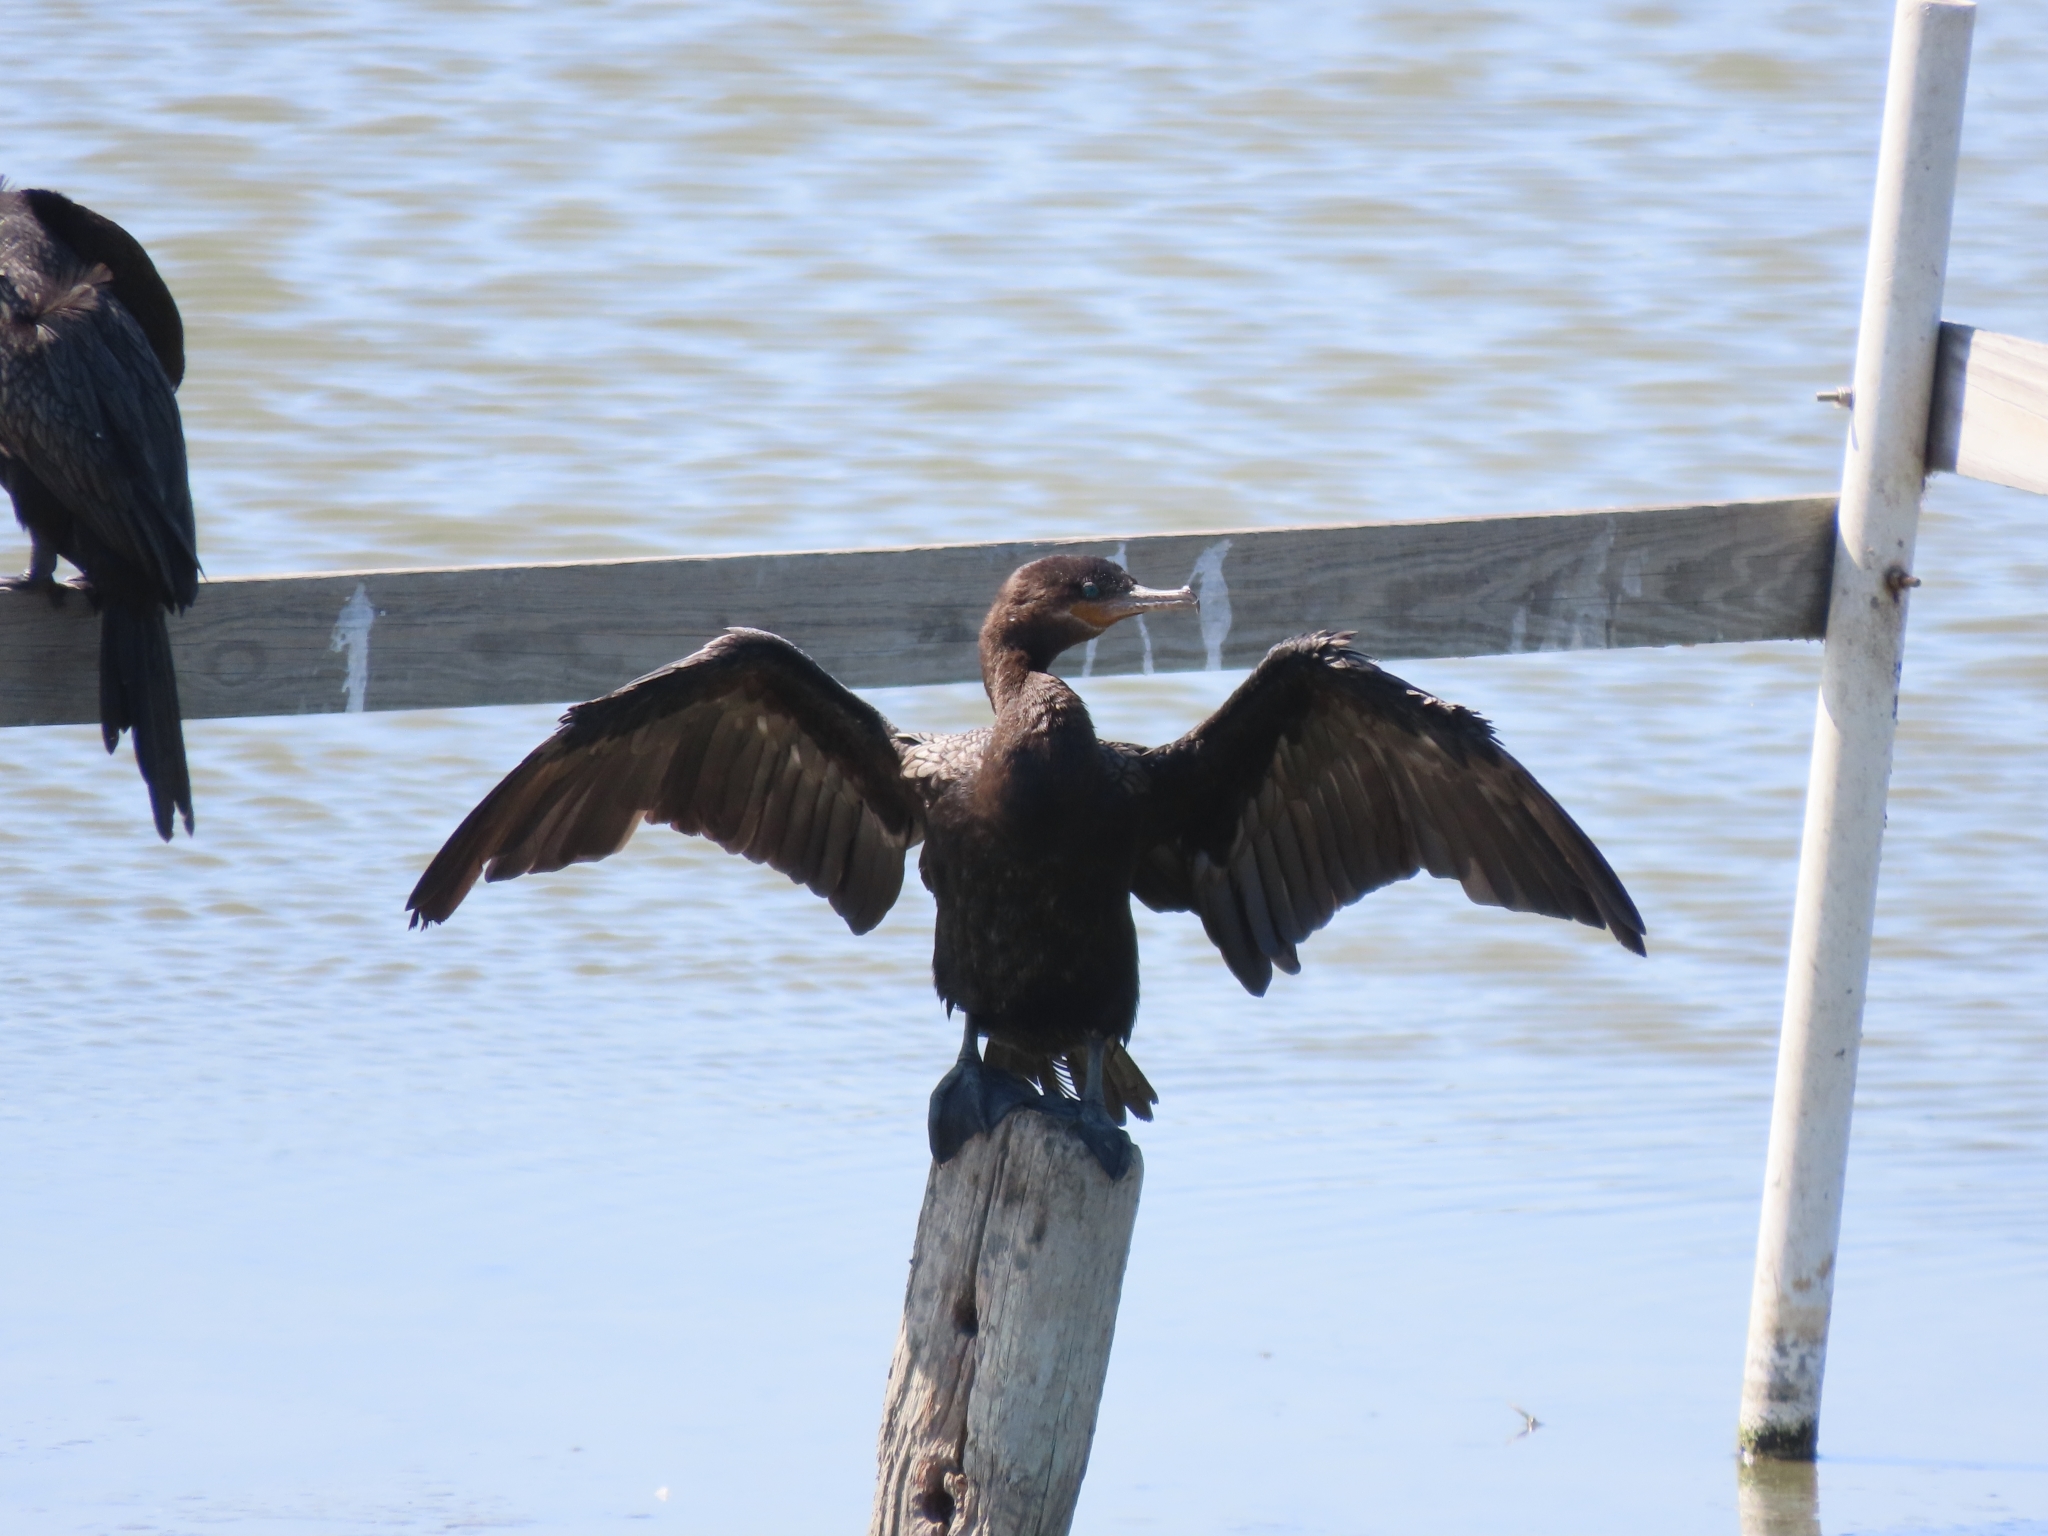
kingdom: Animalia
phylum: Chordata
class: Aves
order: Suliformes
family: Phalacrocoracidae
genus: Phalacrocorax
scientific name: Phalacrocorax brasilianus
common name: Neotropic cormorant
